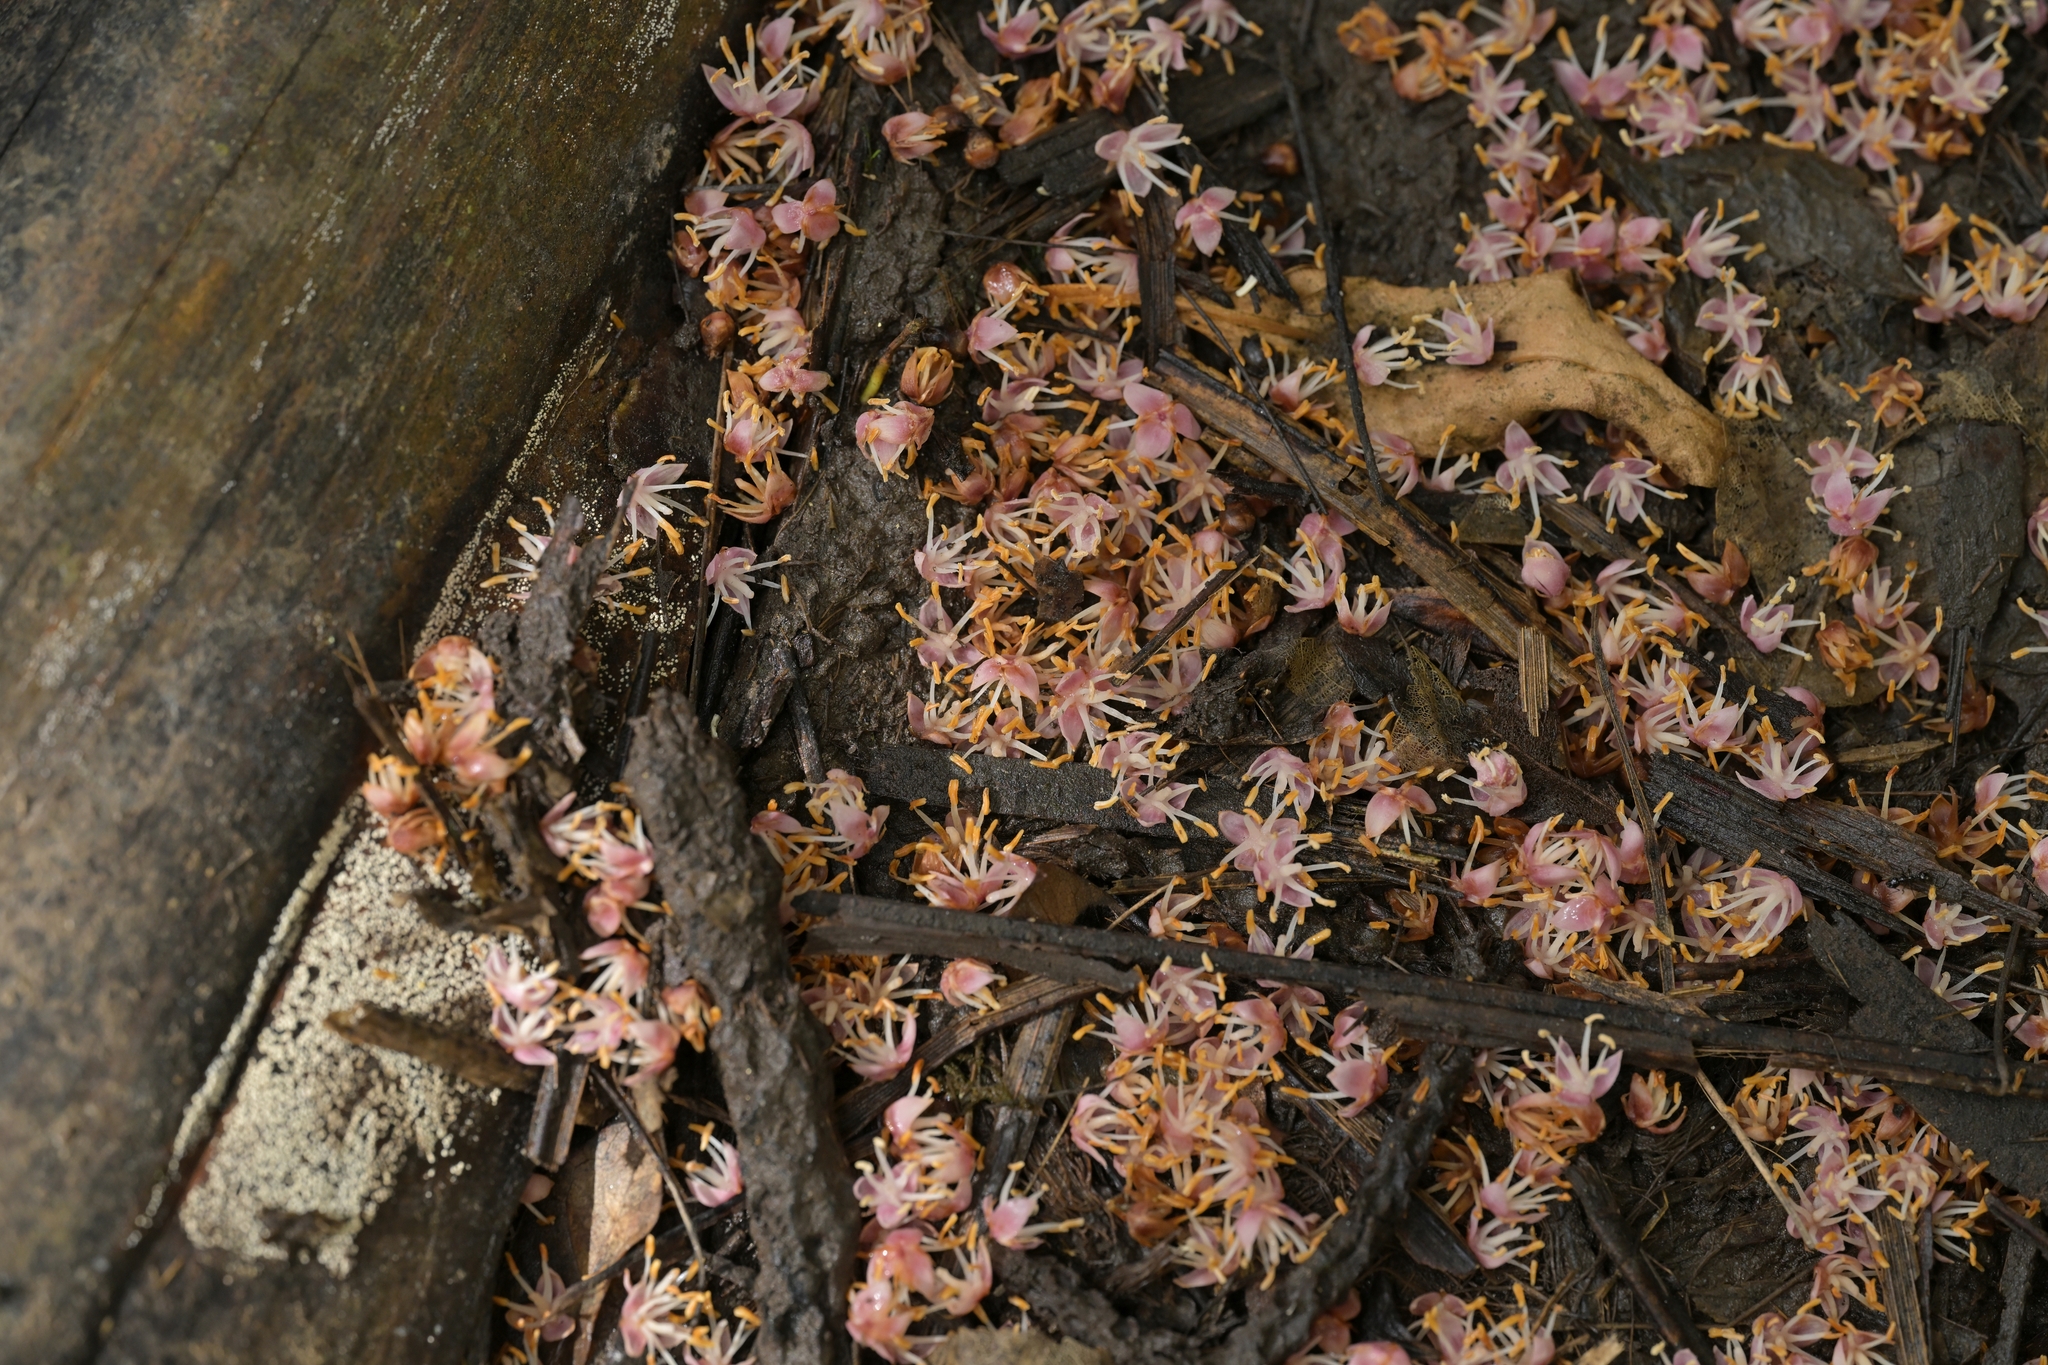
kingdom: Plantae
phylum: Tracheophyta
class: Liliopsida
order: Arecales
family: Arecaceae
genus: Rhopalostylis
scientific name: Rhopalostylis sapida
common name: Feather-duster palm
